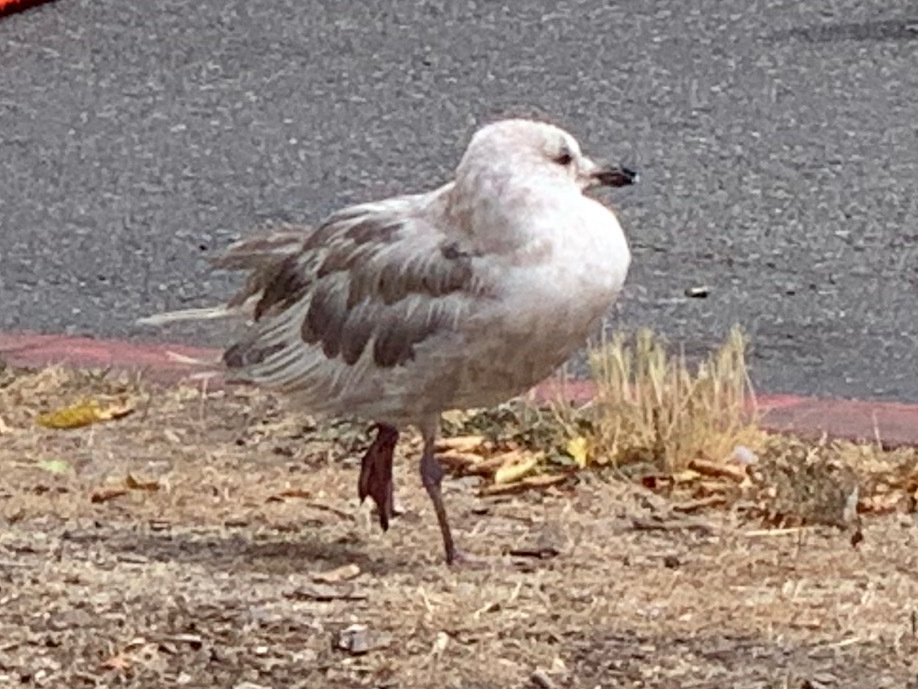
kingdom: Animalia
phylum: Chordata
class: Aves
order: Charadriiformes
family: Laridae
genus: Larus
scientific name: Larus
